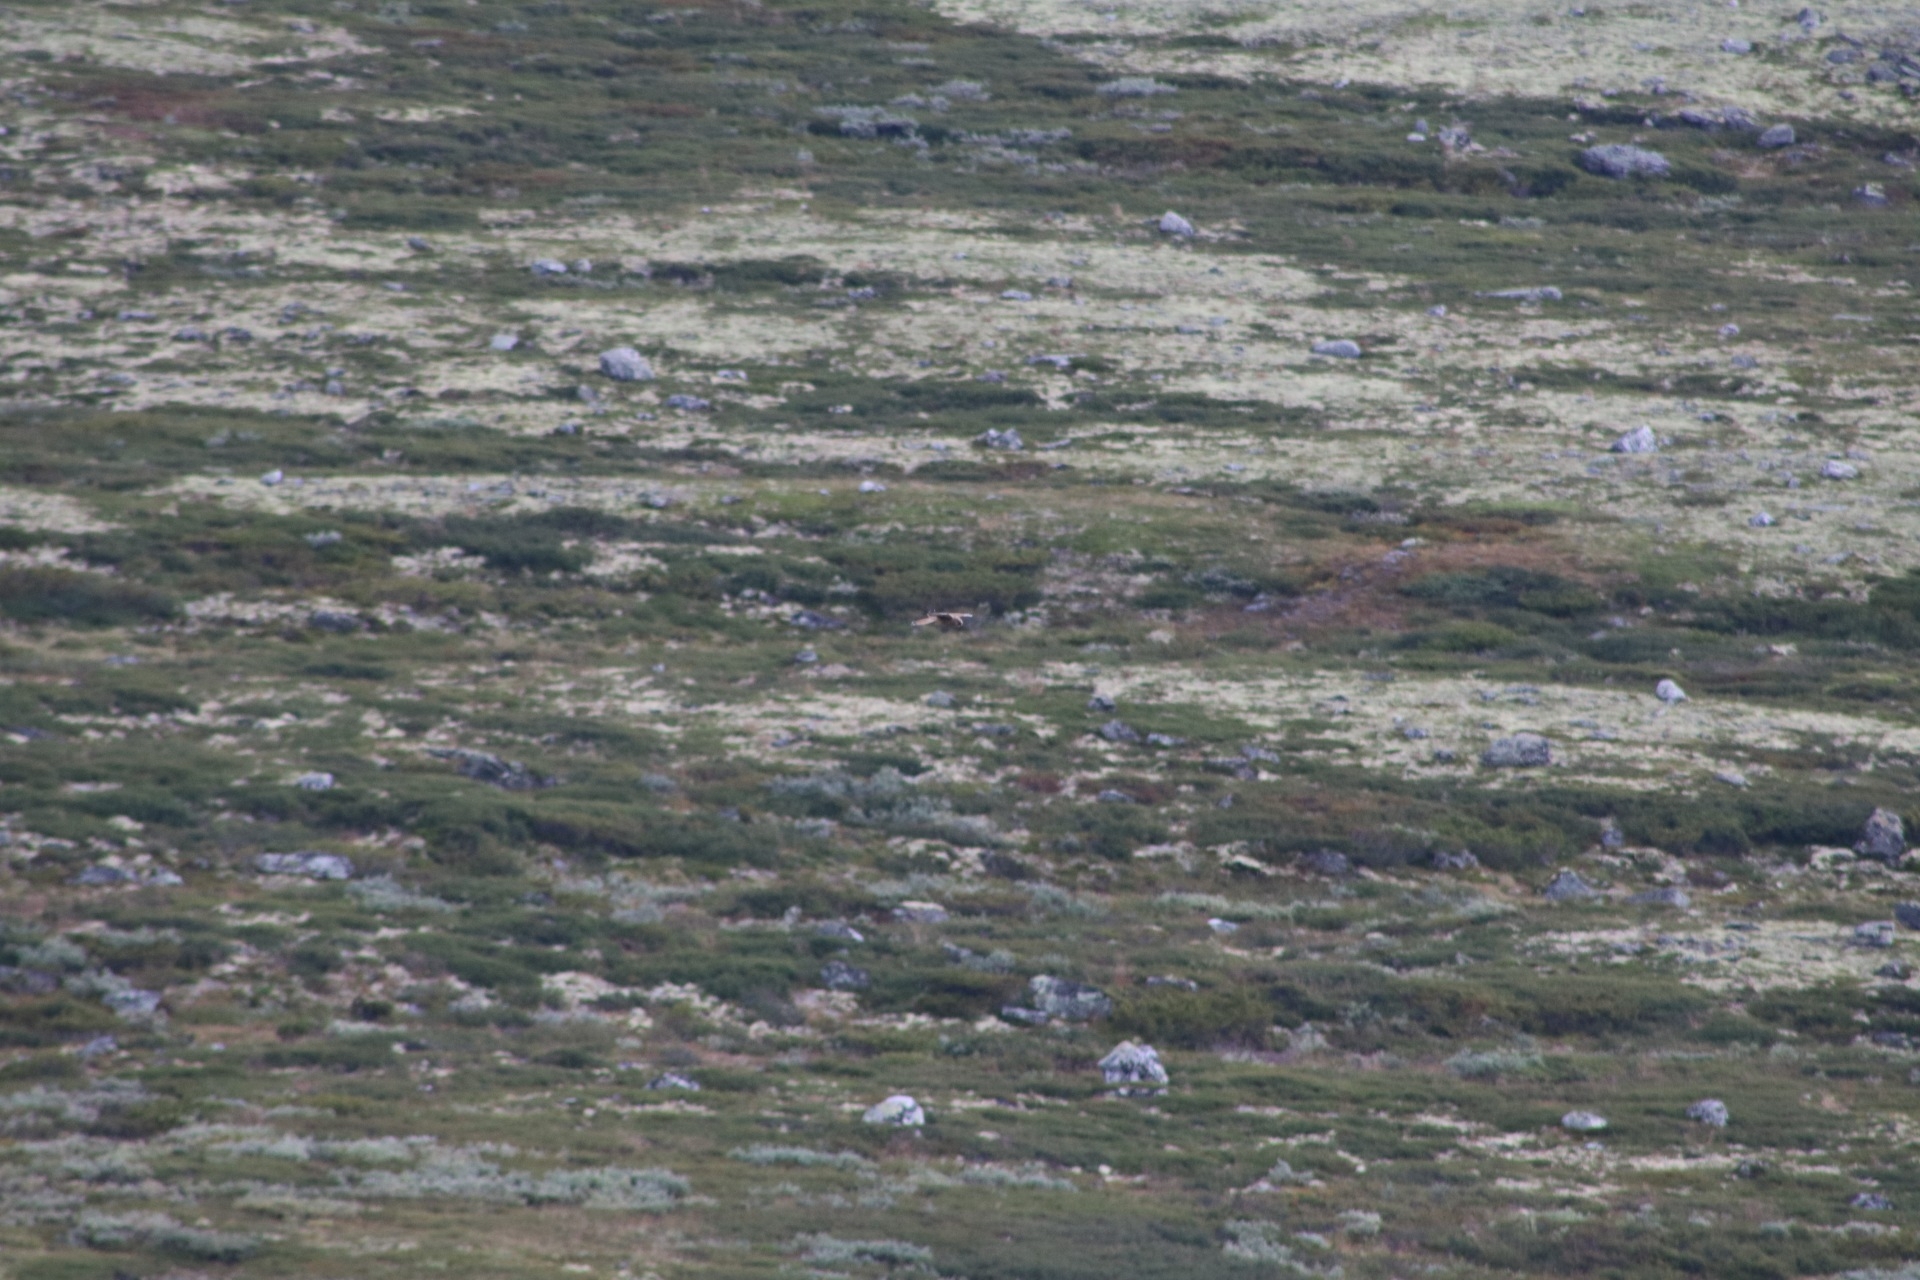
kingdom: Animalia
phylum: Chordata
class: Aves
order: Falconiformes
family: Falconidae
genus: Falco
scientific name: Falco tinnunculus
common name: Common kestrel
